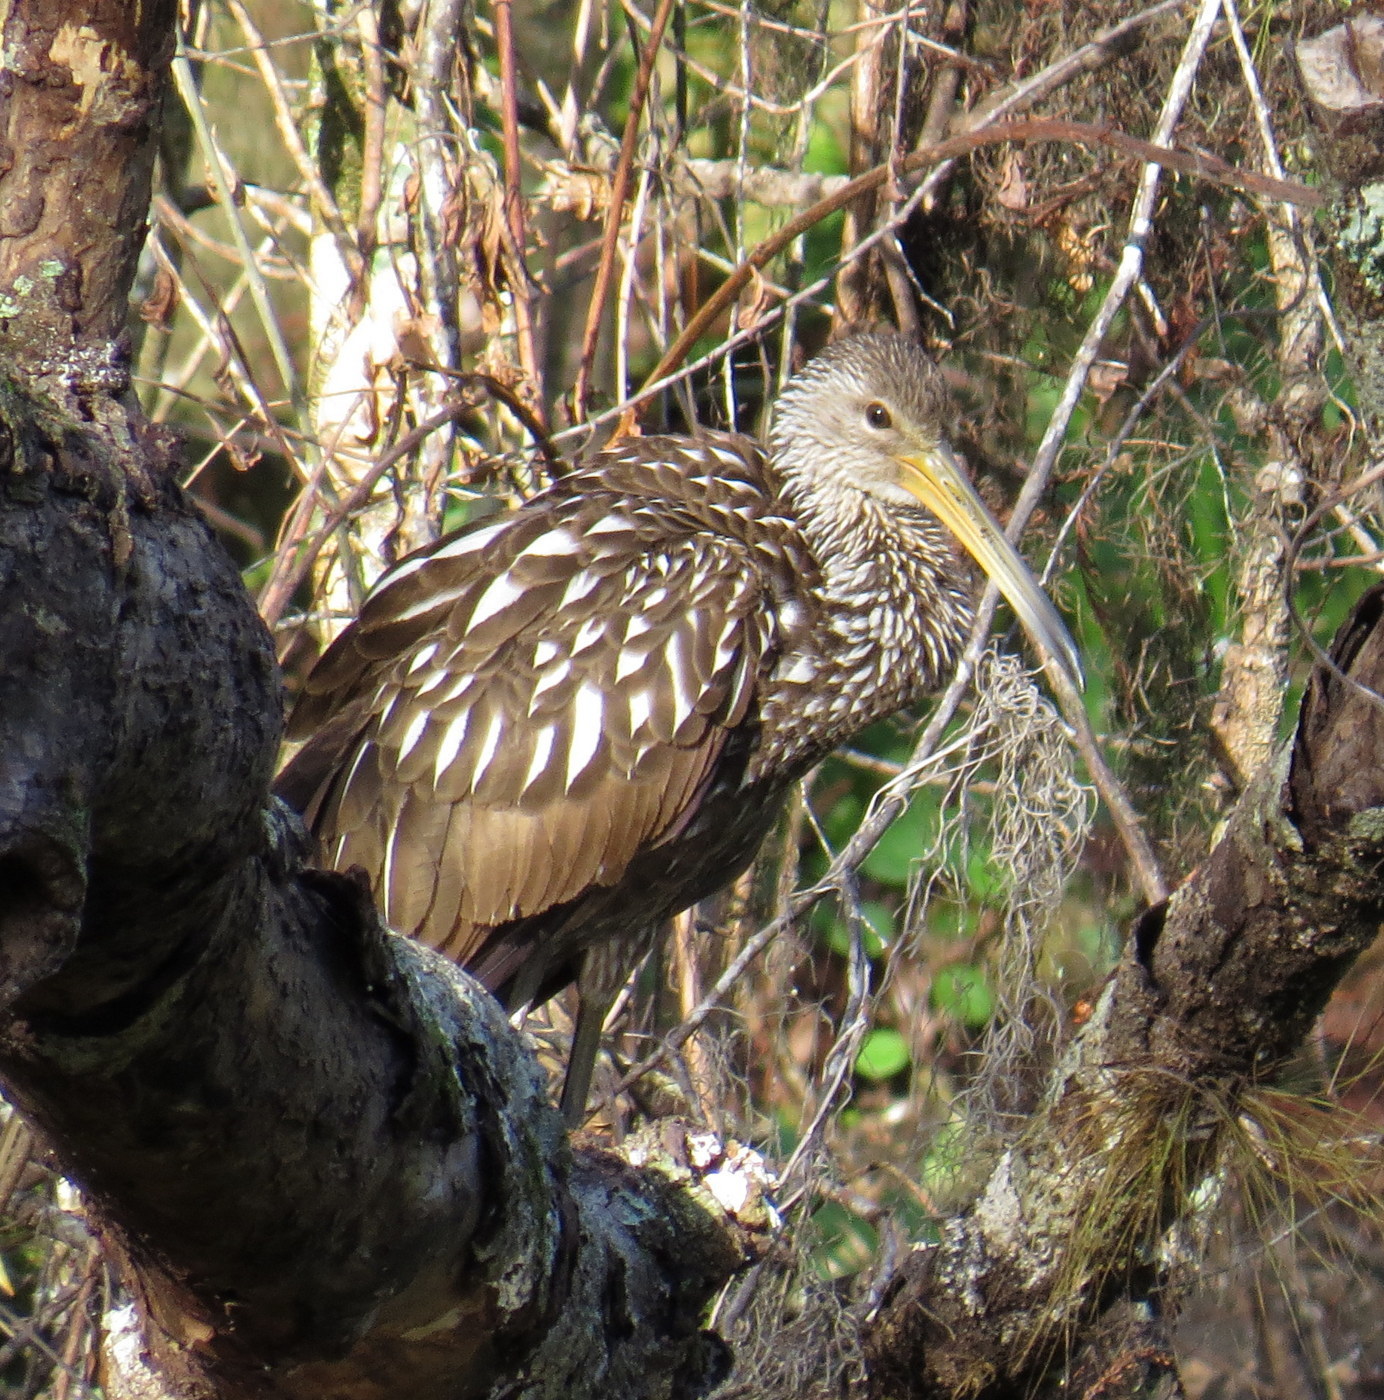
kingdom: Animalia
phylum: Chordata
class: Aves
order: Gruiformes
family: Aramidae
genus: Aramus
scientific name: Aramus guarauna
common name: Limpkin
